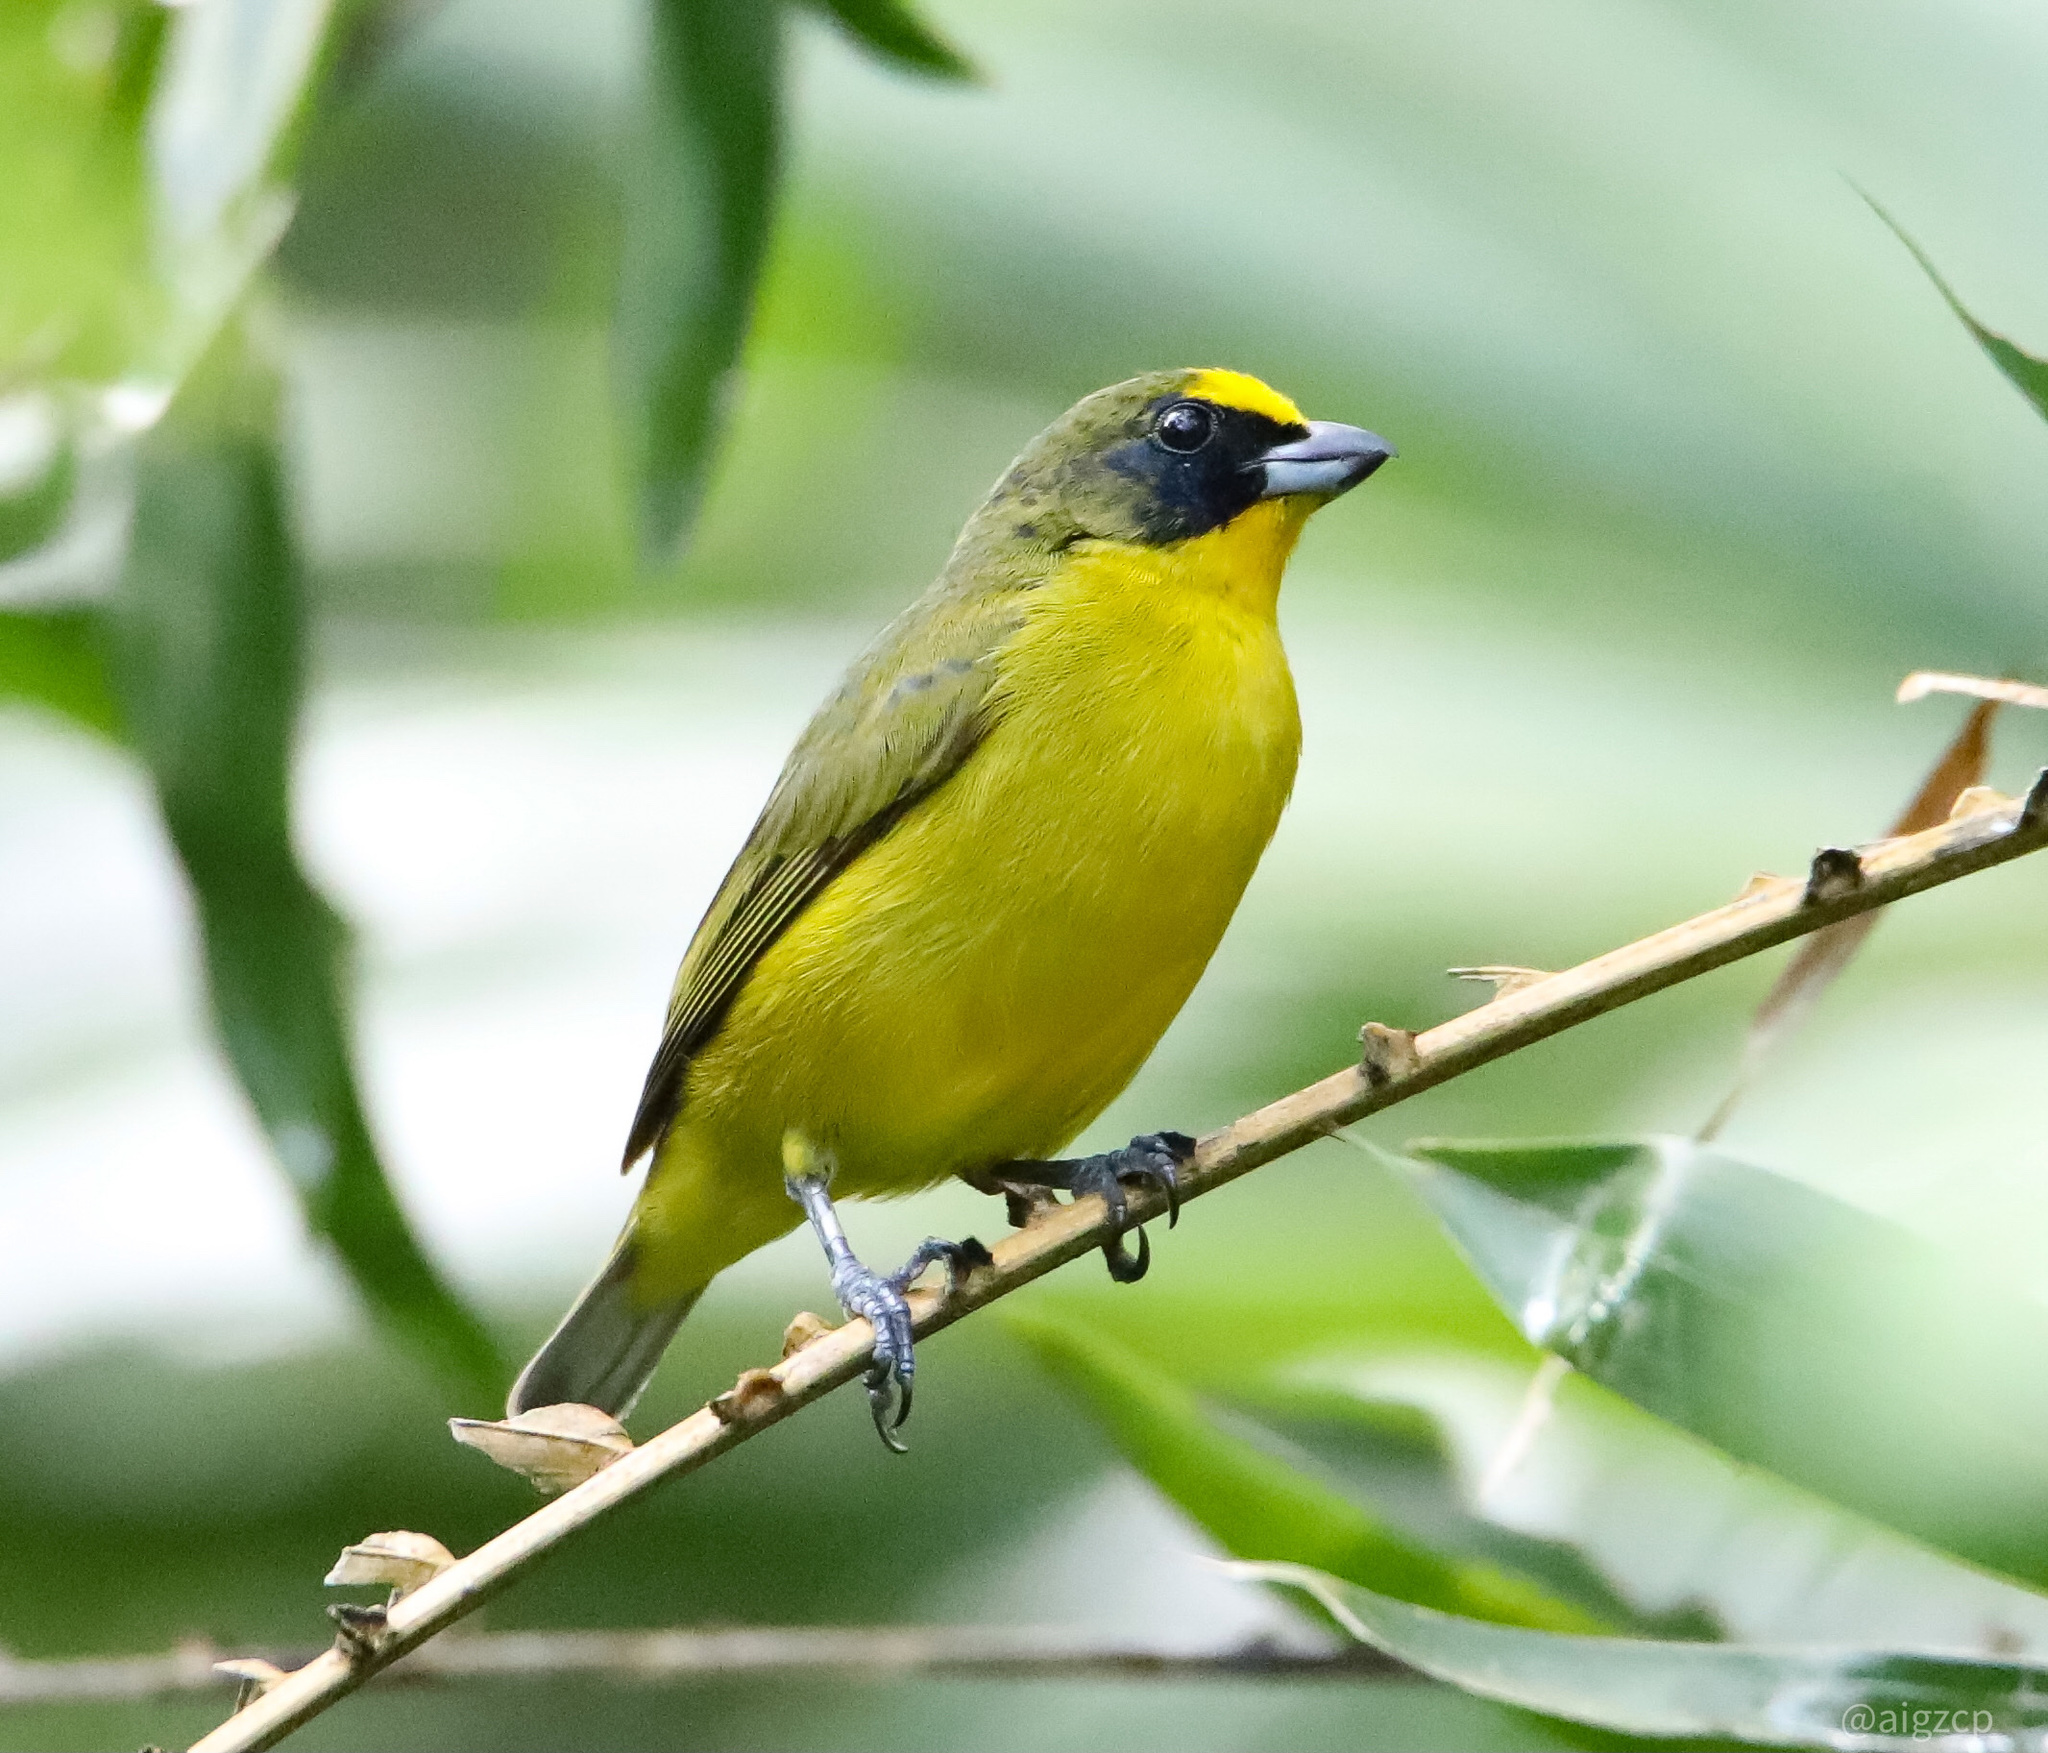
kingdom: Animalia
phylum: Chordata
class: Aves
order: Passeriformes
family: Fringillidae
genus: Euphonia
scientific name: Euphonia laniirostris
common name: Thick-billed euphonia
